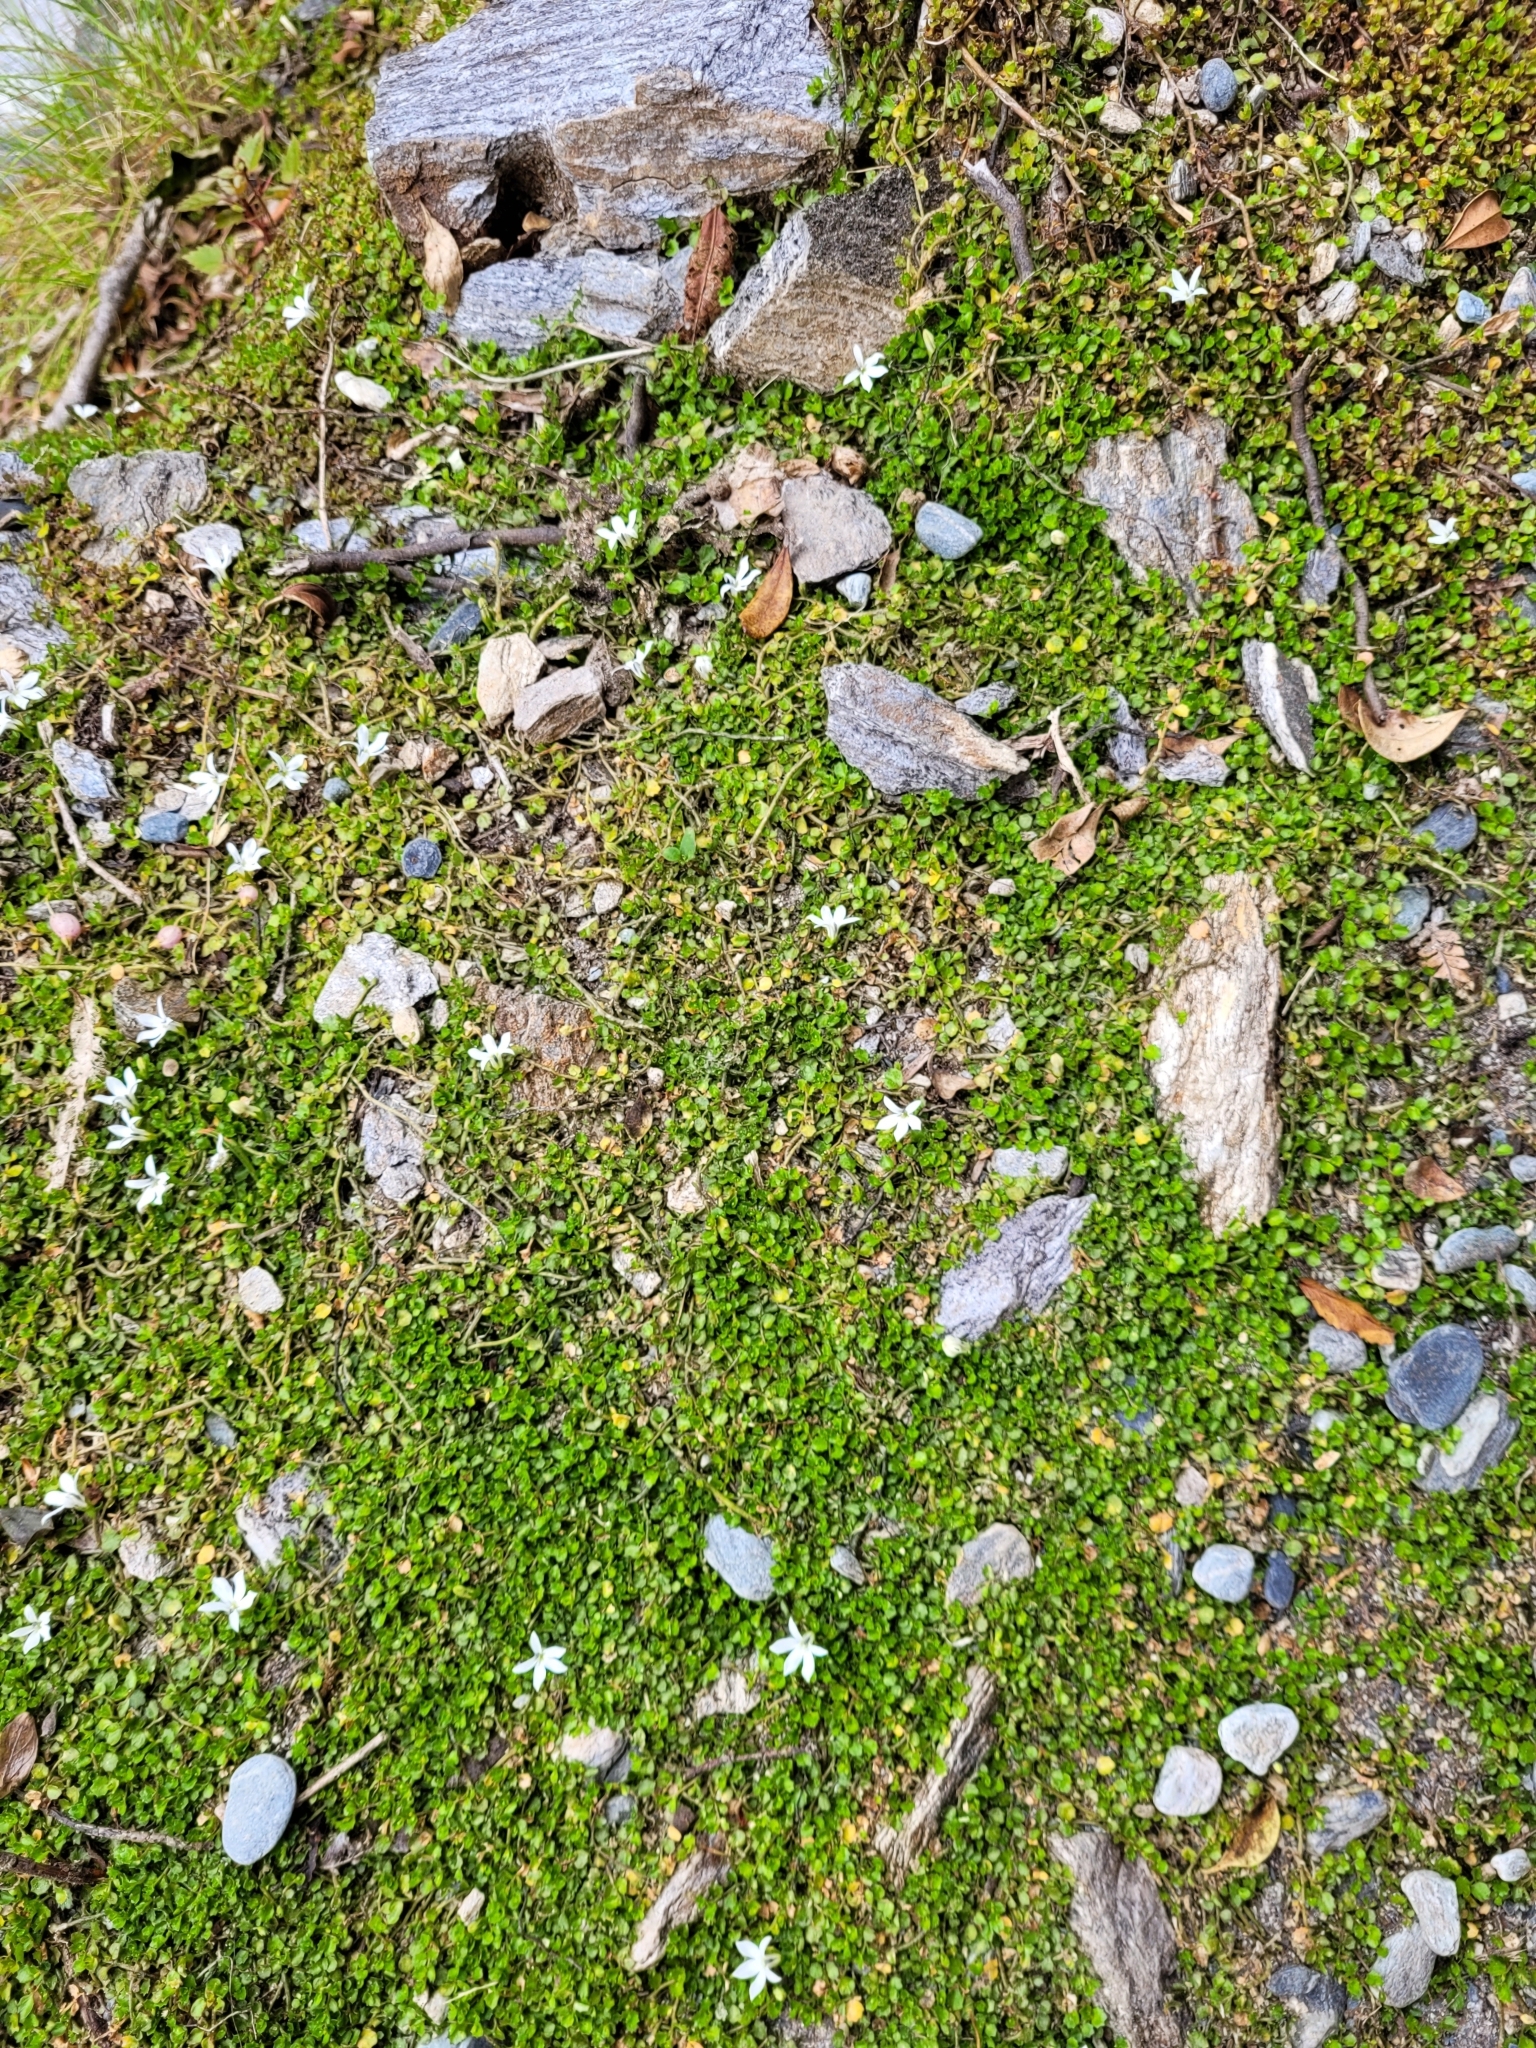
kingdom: Plantae
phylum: Tracheophyta
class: Magnoliopsida
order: Asterales
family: Campanulaceae
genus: Lobelia
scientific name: Lobelia angulata
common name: Lawn lobelia
